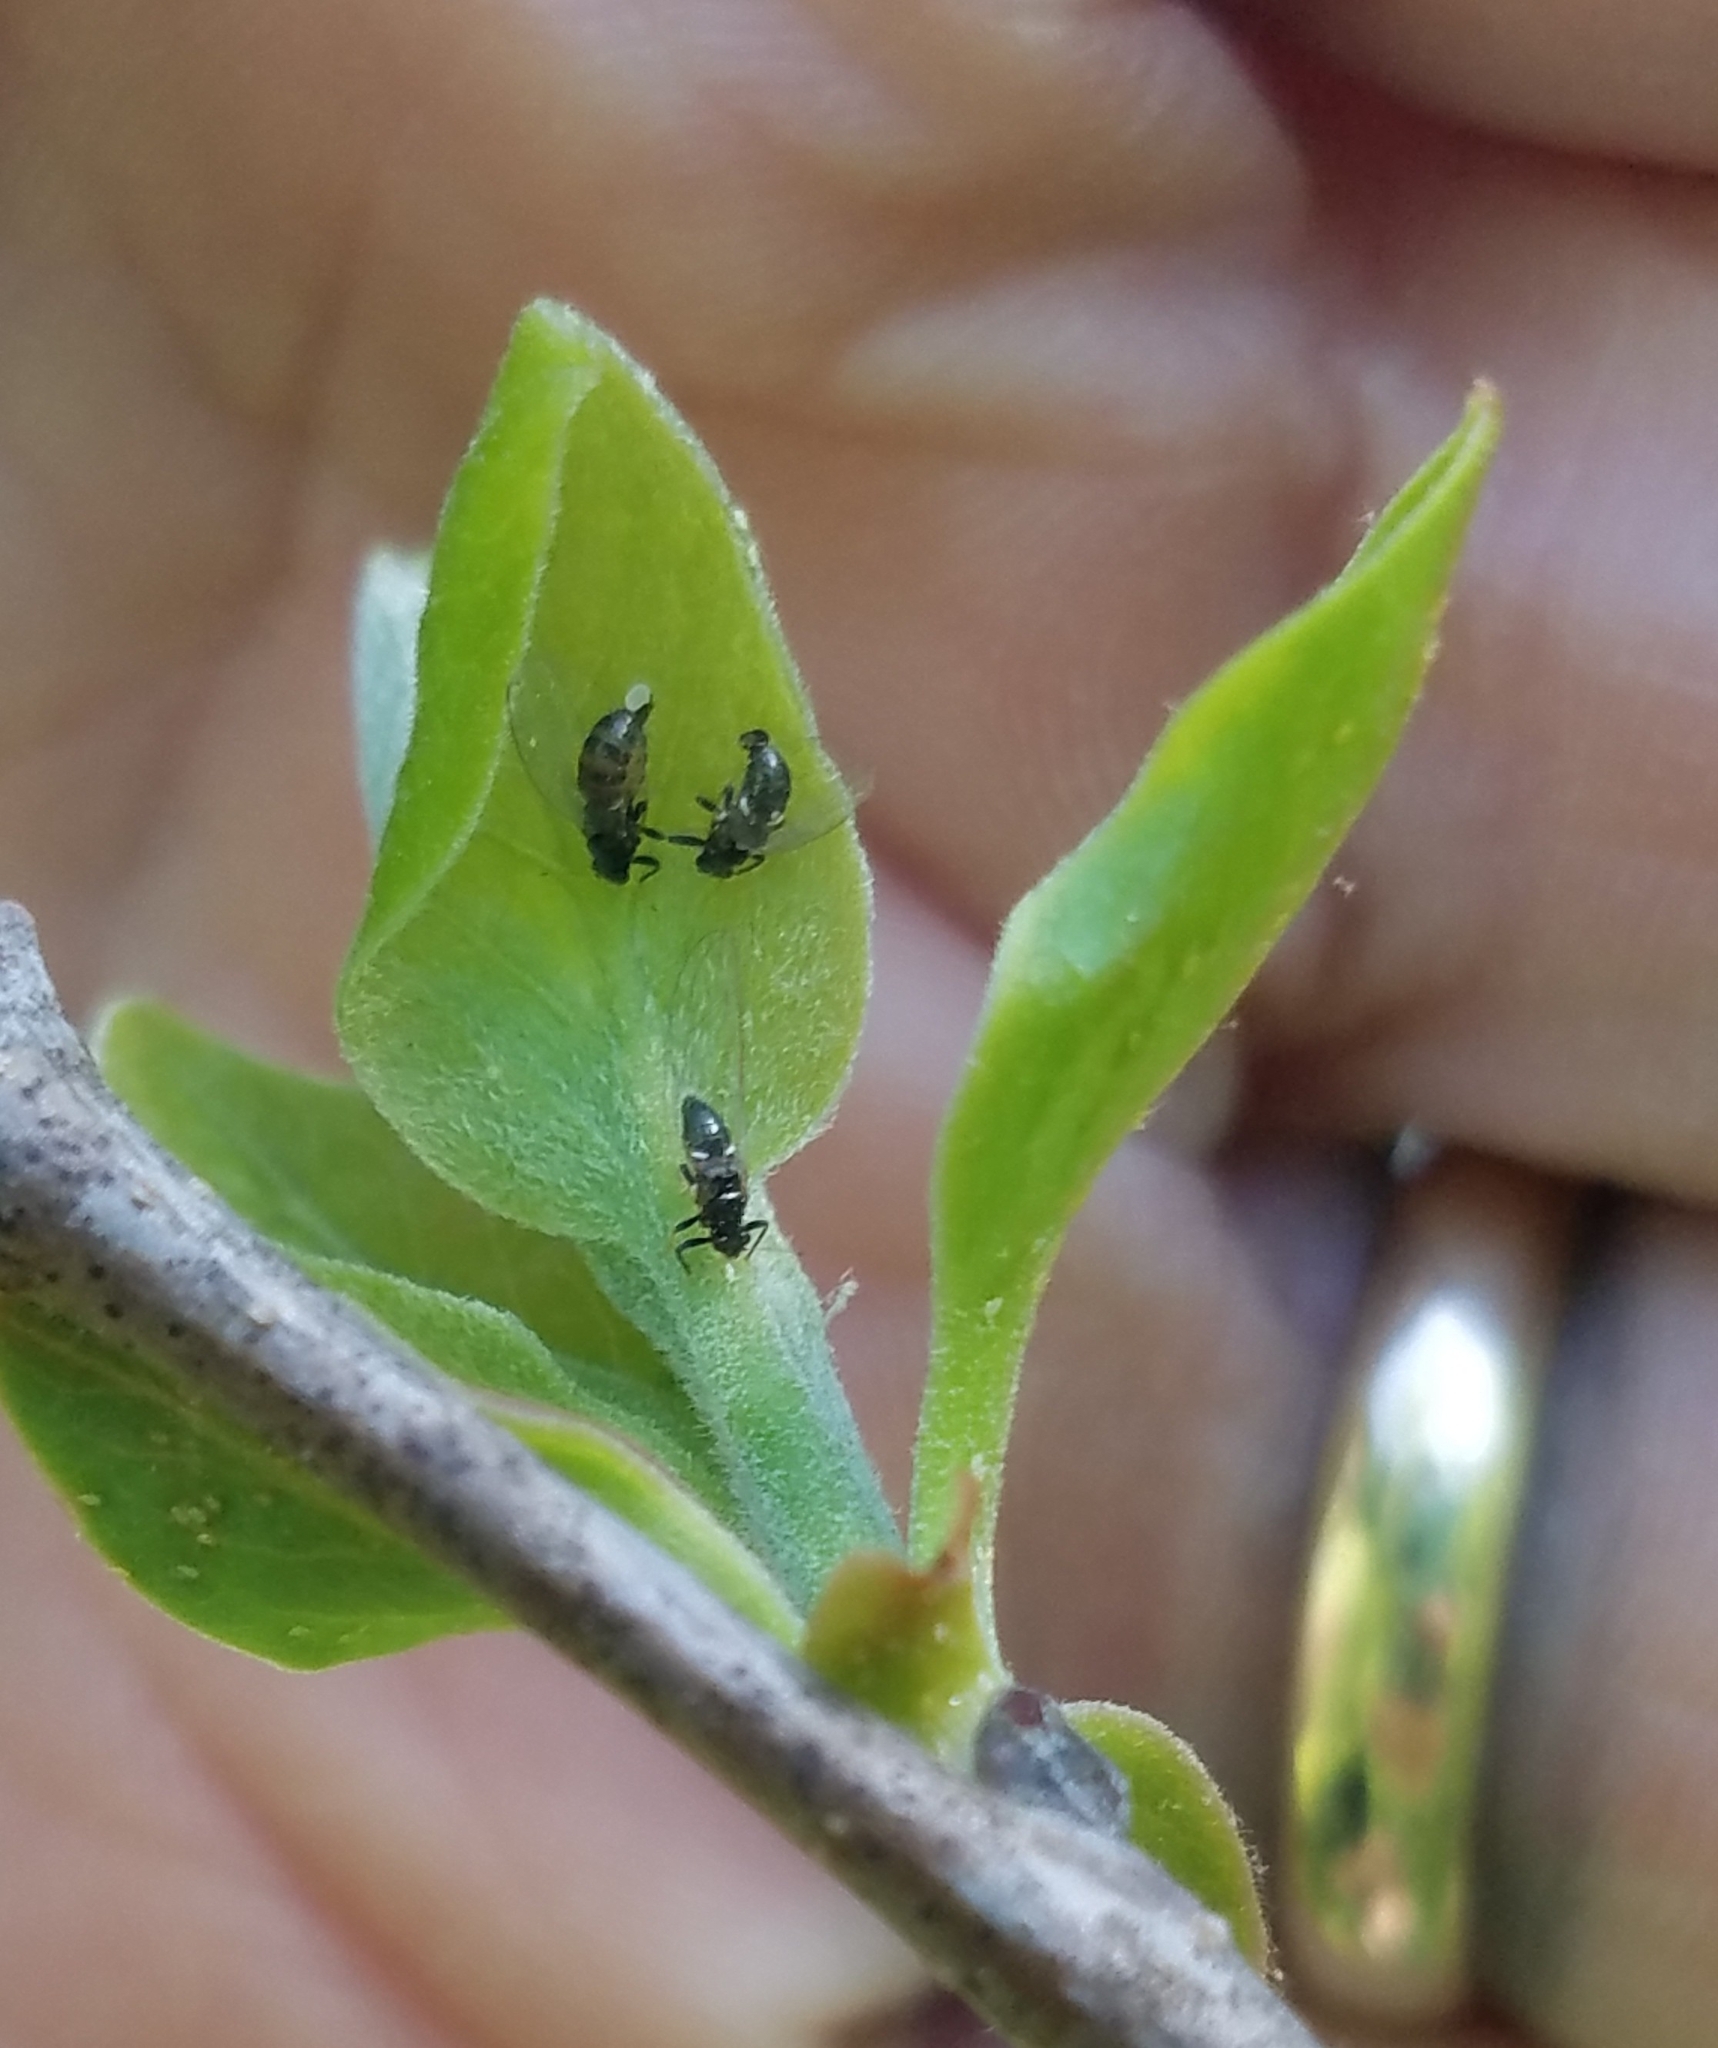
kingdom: Animalia
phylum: Arthropoda
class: Insecta
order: Hemiptera
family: Triozidae
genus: Baeoalitriozus
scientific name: Baeoalitriozus diospyri
